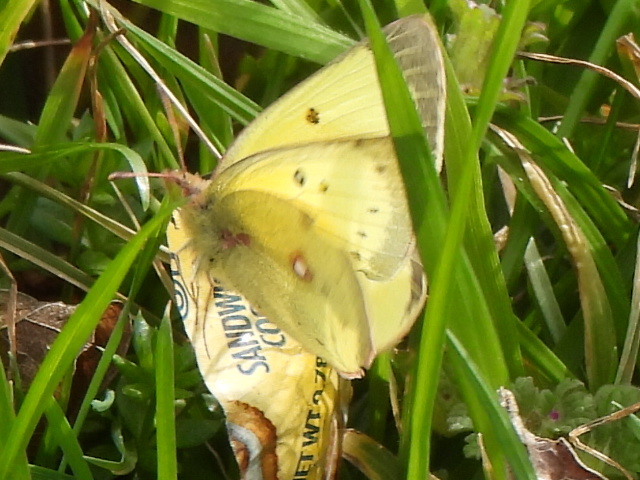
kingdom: Animalia
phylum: Arthropoda
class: Insecta
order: Lepidoptera
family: Pieridae
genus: Colias
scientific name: Colias eurytheme
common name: Alfalfa butterfly
